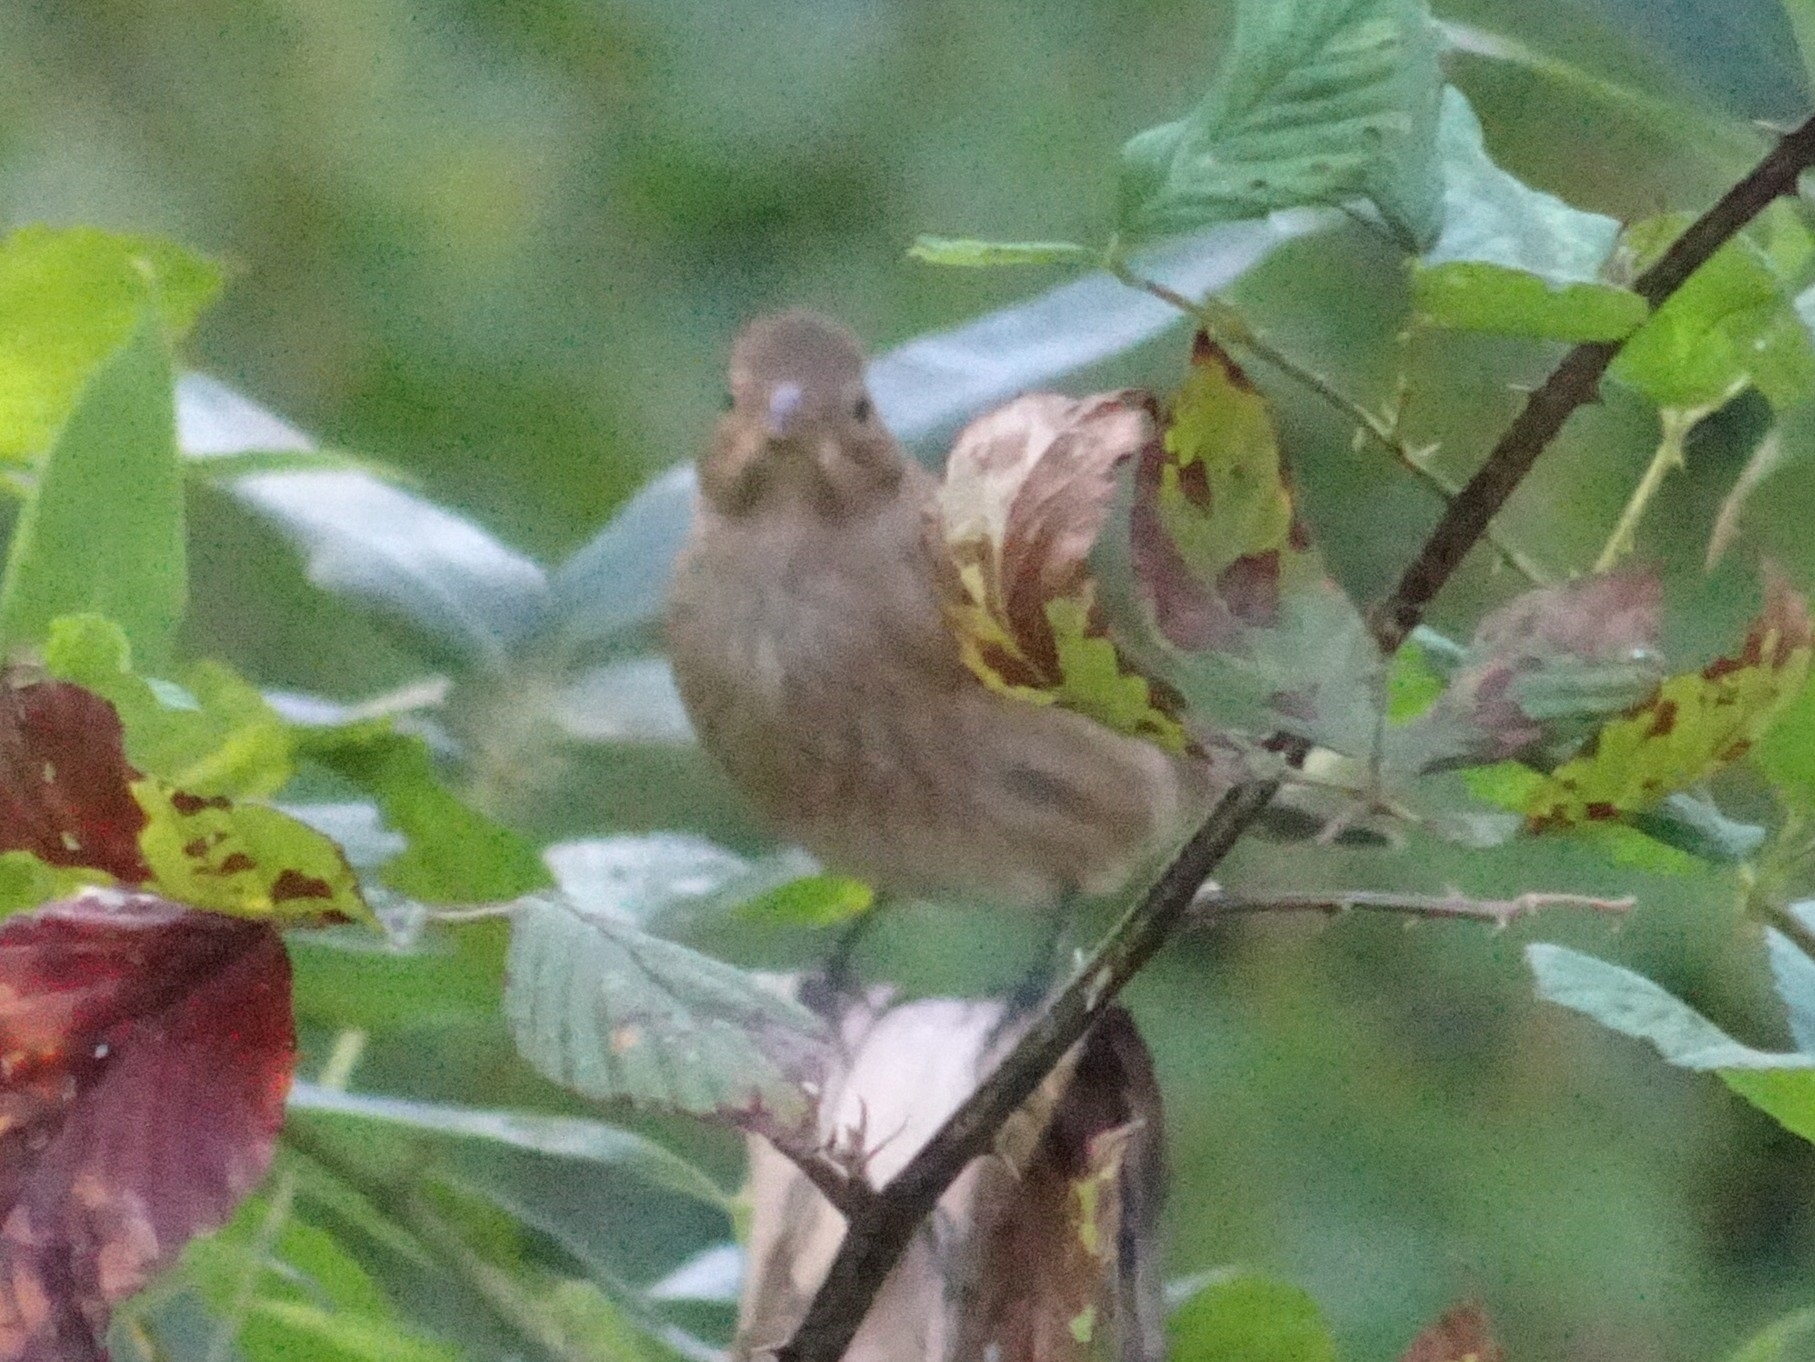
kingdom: Animalia
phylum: Chordata
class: Aves
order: Passeriformes
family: Cardinalidae
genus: Passerina
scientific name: Passerina cyanea
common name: Indigo bunting
